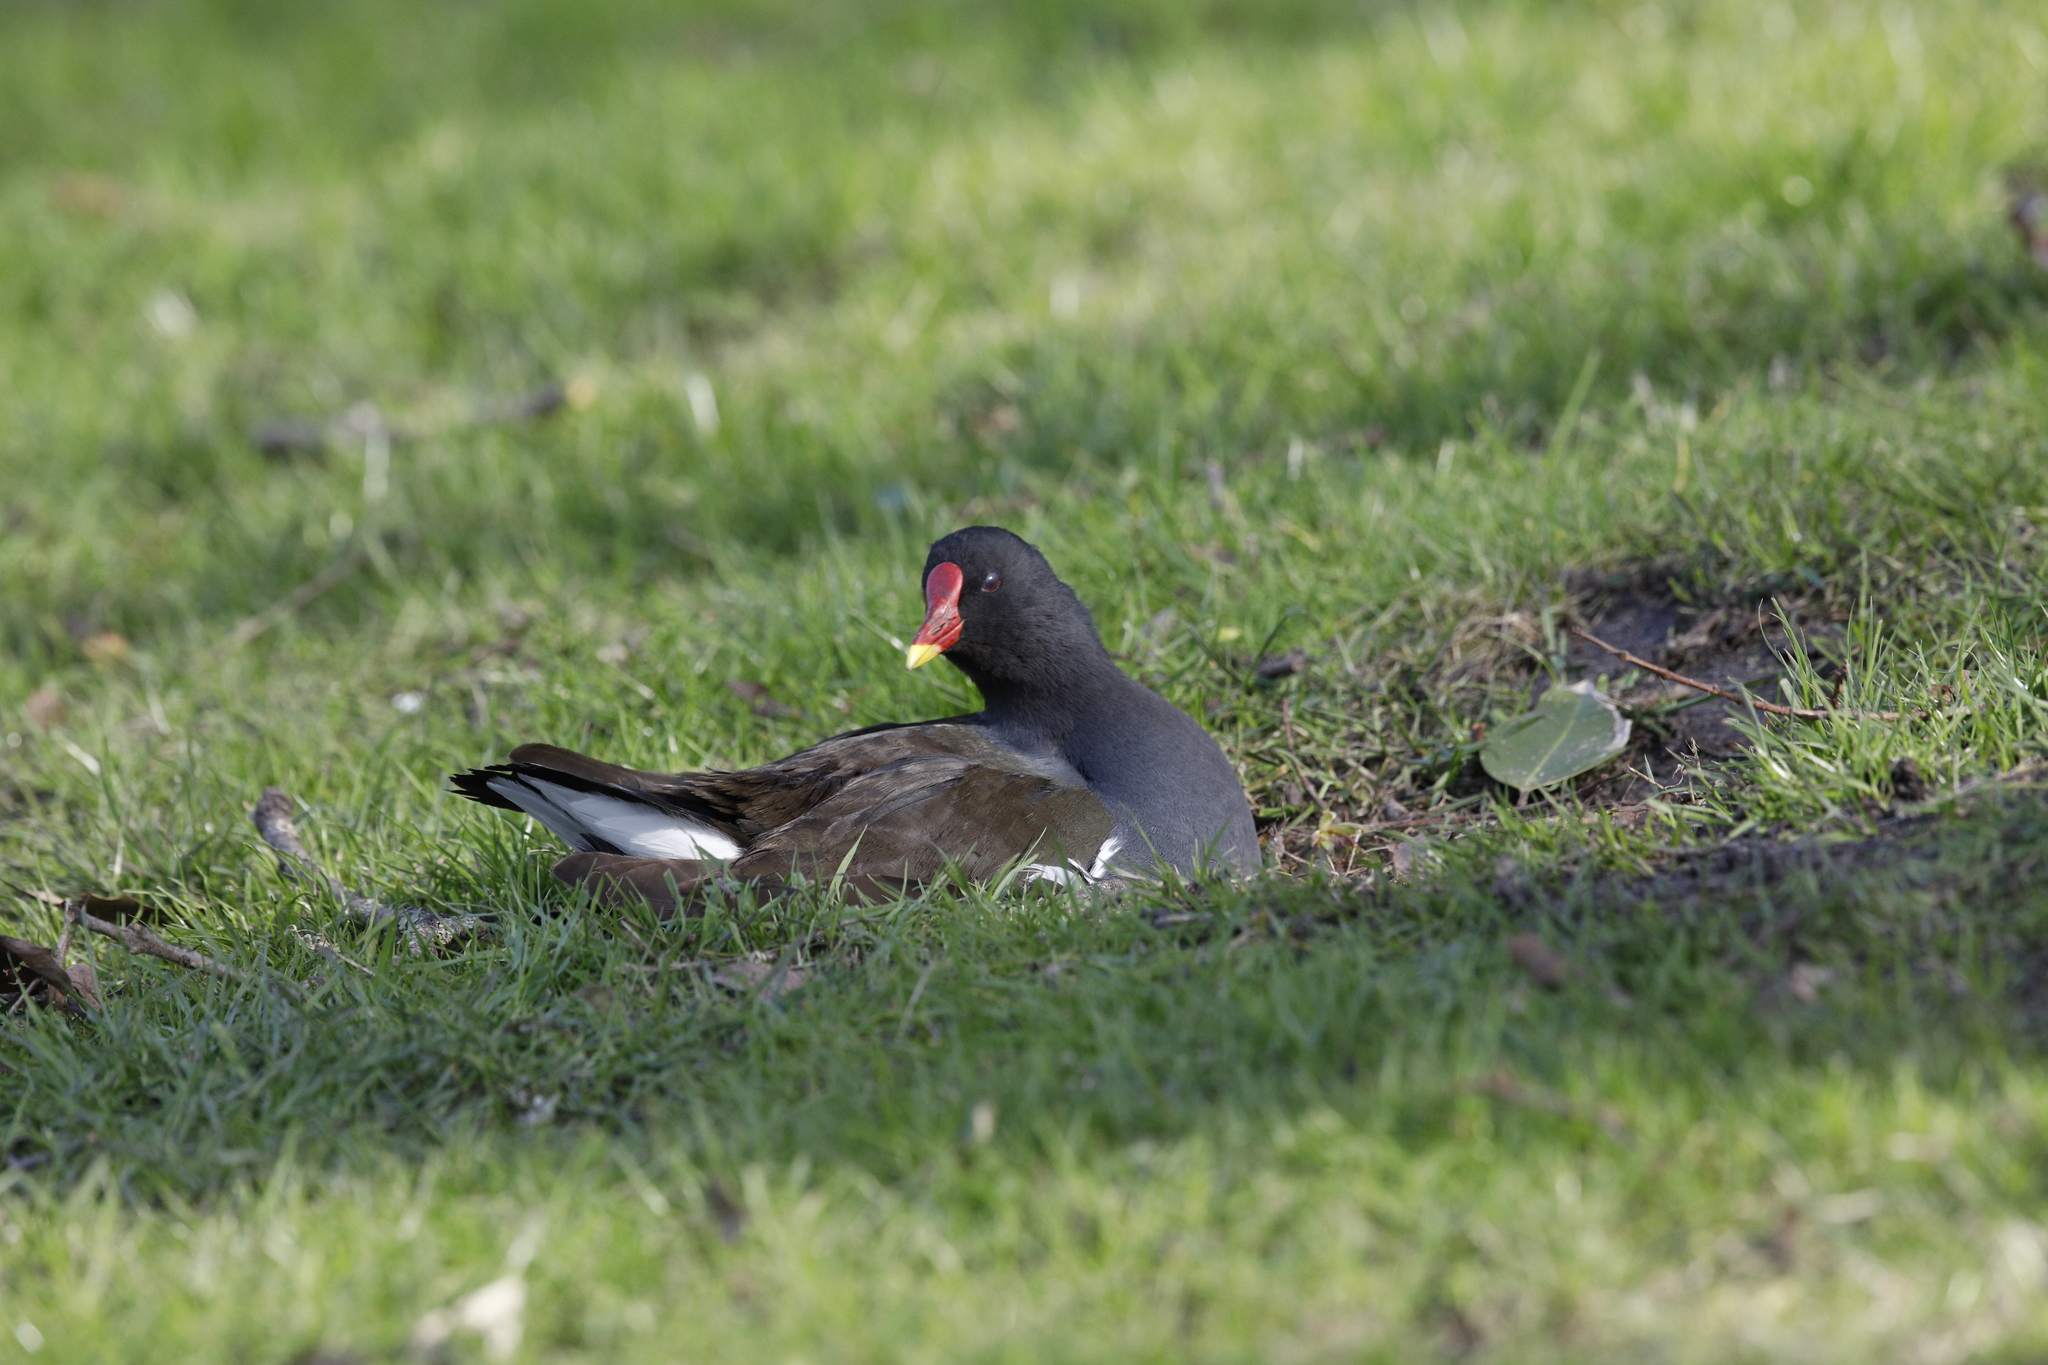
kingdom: Animalia
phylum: Chordata
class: Aves
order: Gruiformes
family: Rallidae
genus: Gallinula
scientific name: Gallinula chloropus
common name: Common moorhen
